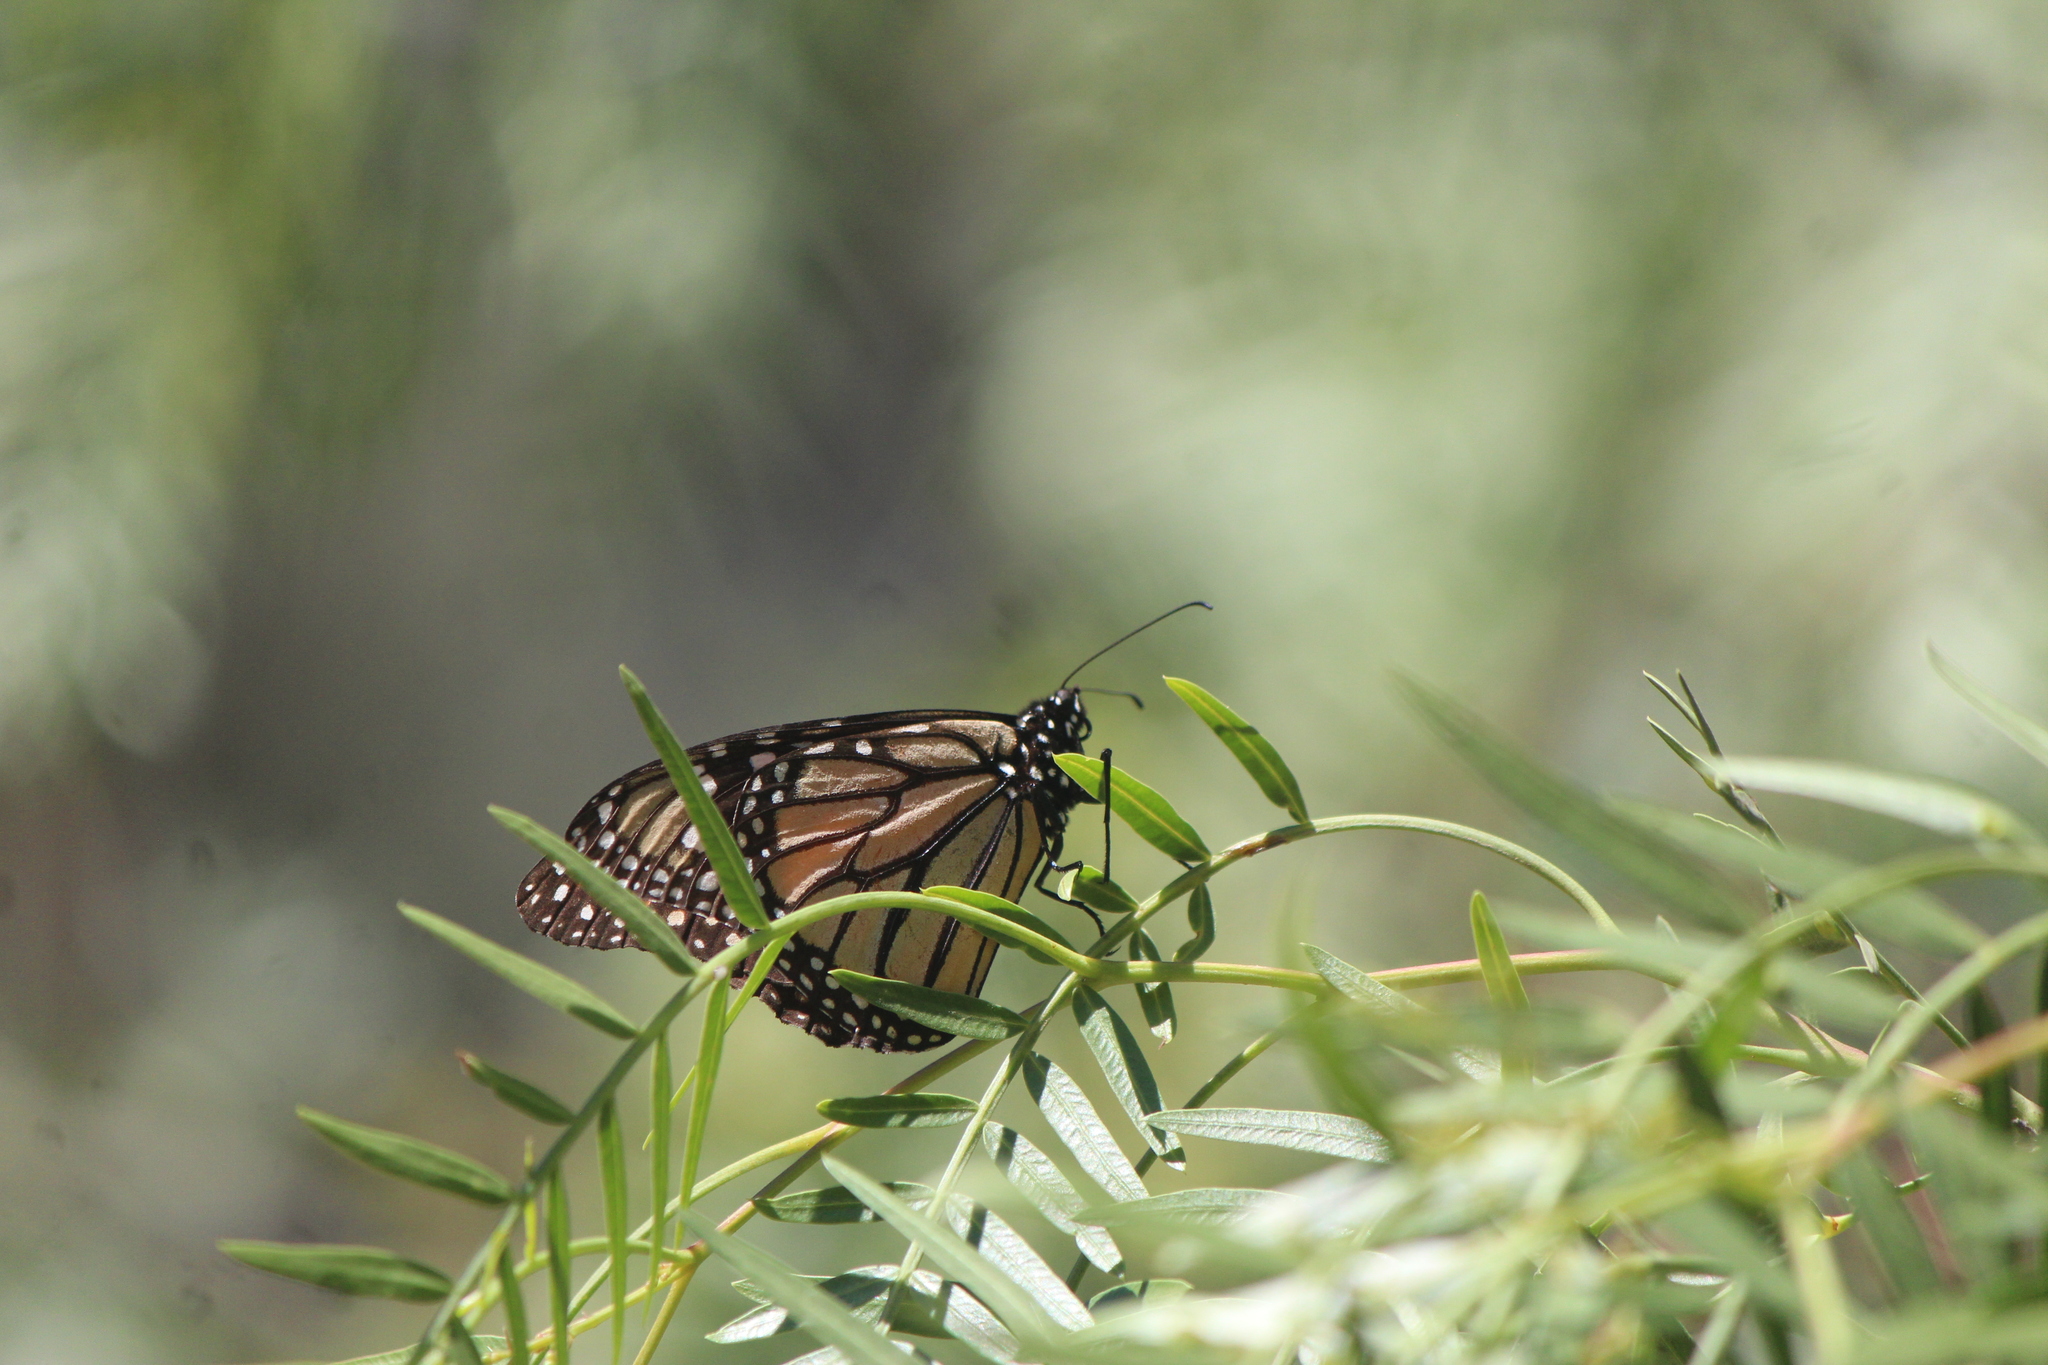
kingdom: Animalia
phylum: Arthropoda
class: Insecta
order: Lepidoptera
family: Nymphalidae
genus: Danaus
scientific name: Danaus plexippus
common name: Monarch
